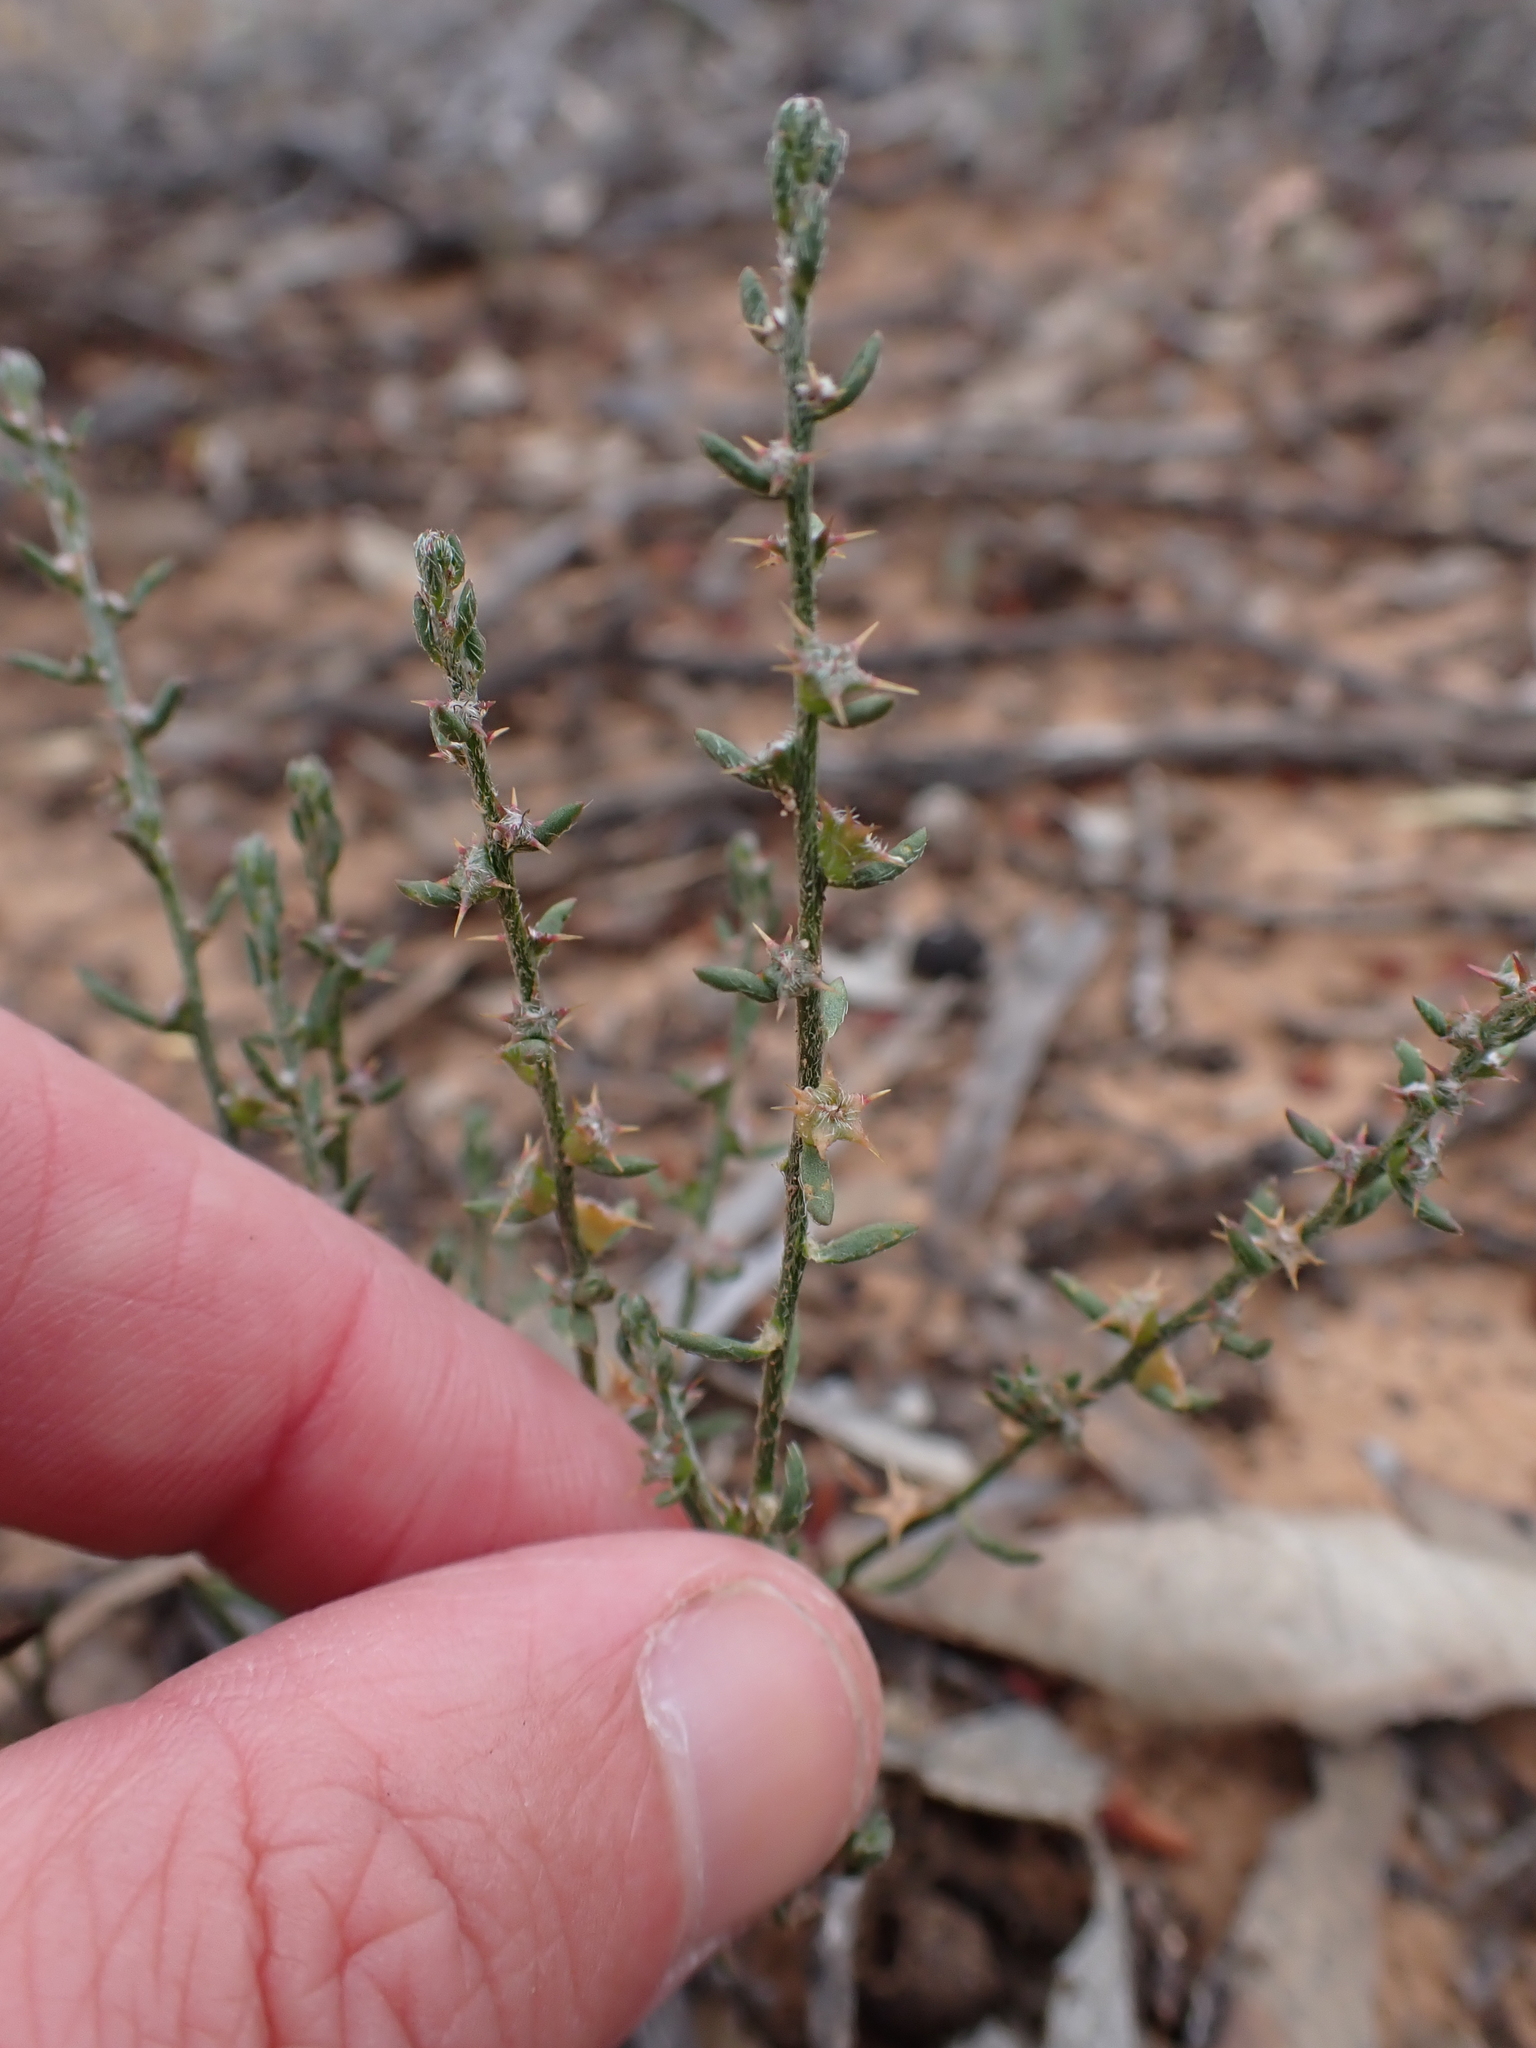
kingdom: Plantae
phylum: Tracheophyta
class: Magnoliopsida
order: Caryophyllales
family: Amaranthaceae
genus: Sclerolaena
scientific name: Sclerolaena parviflora
